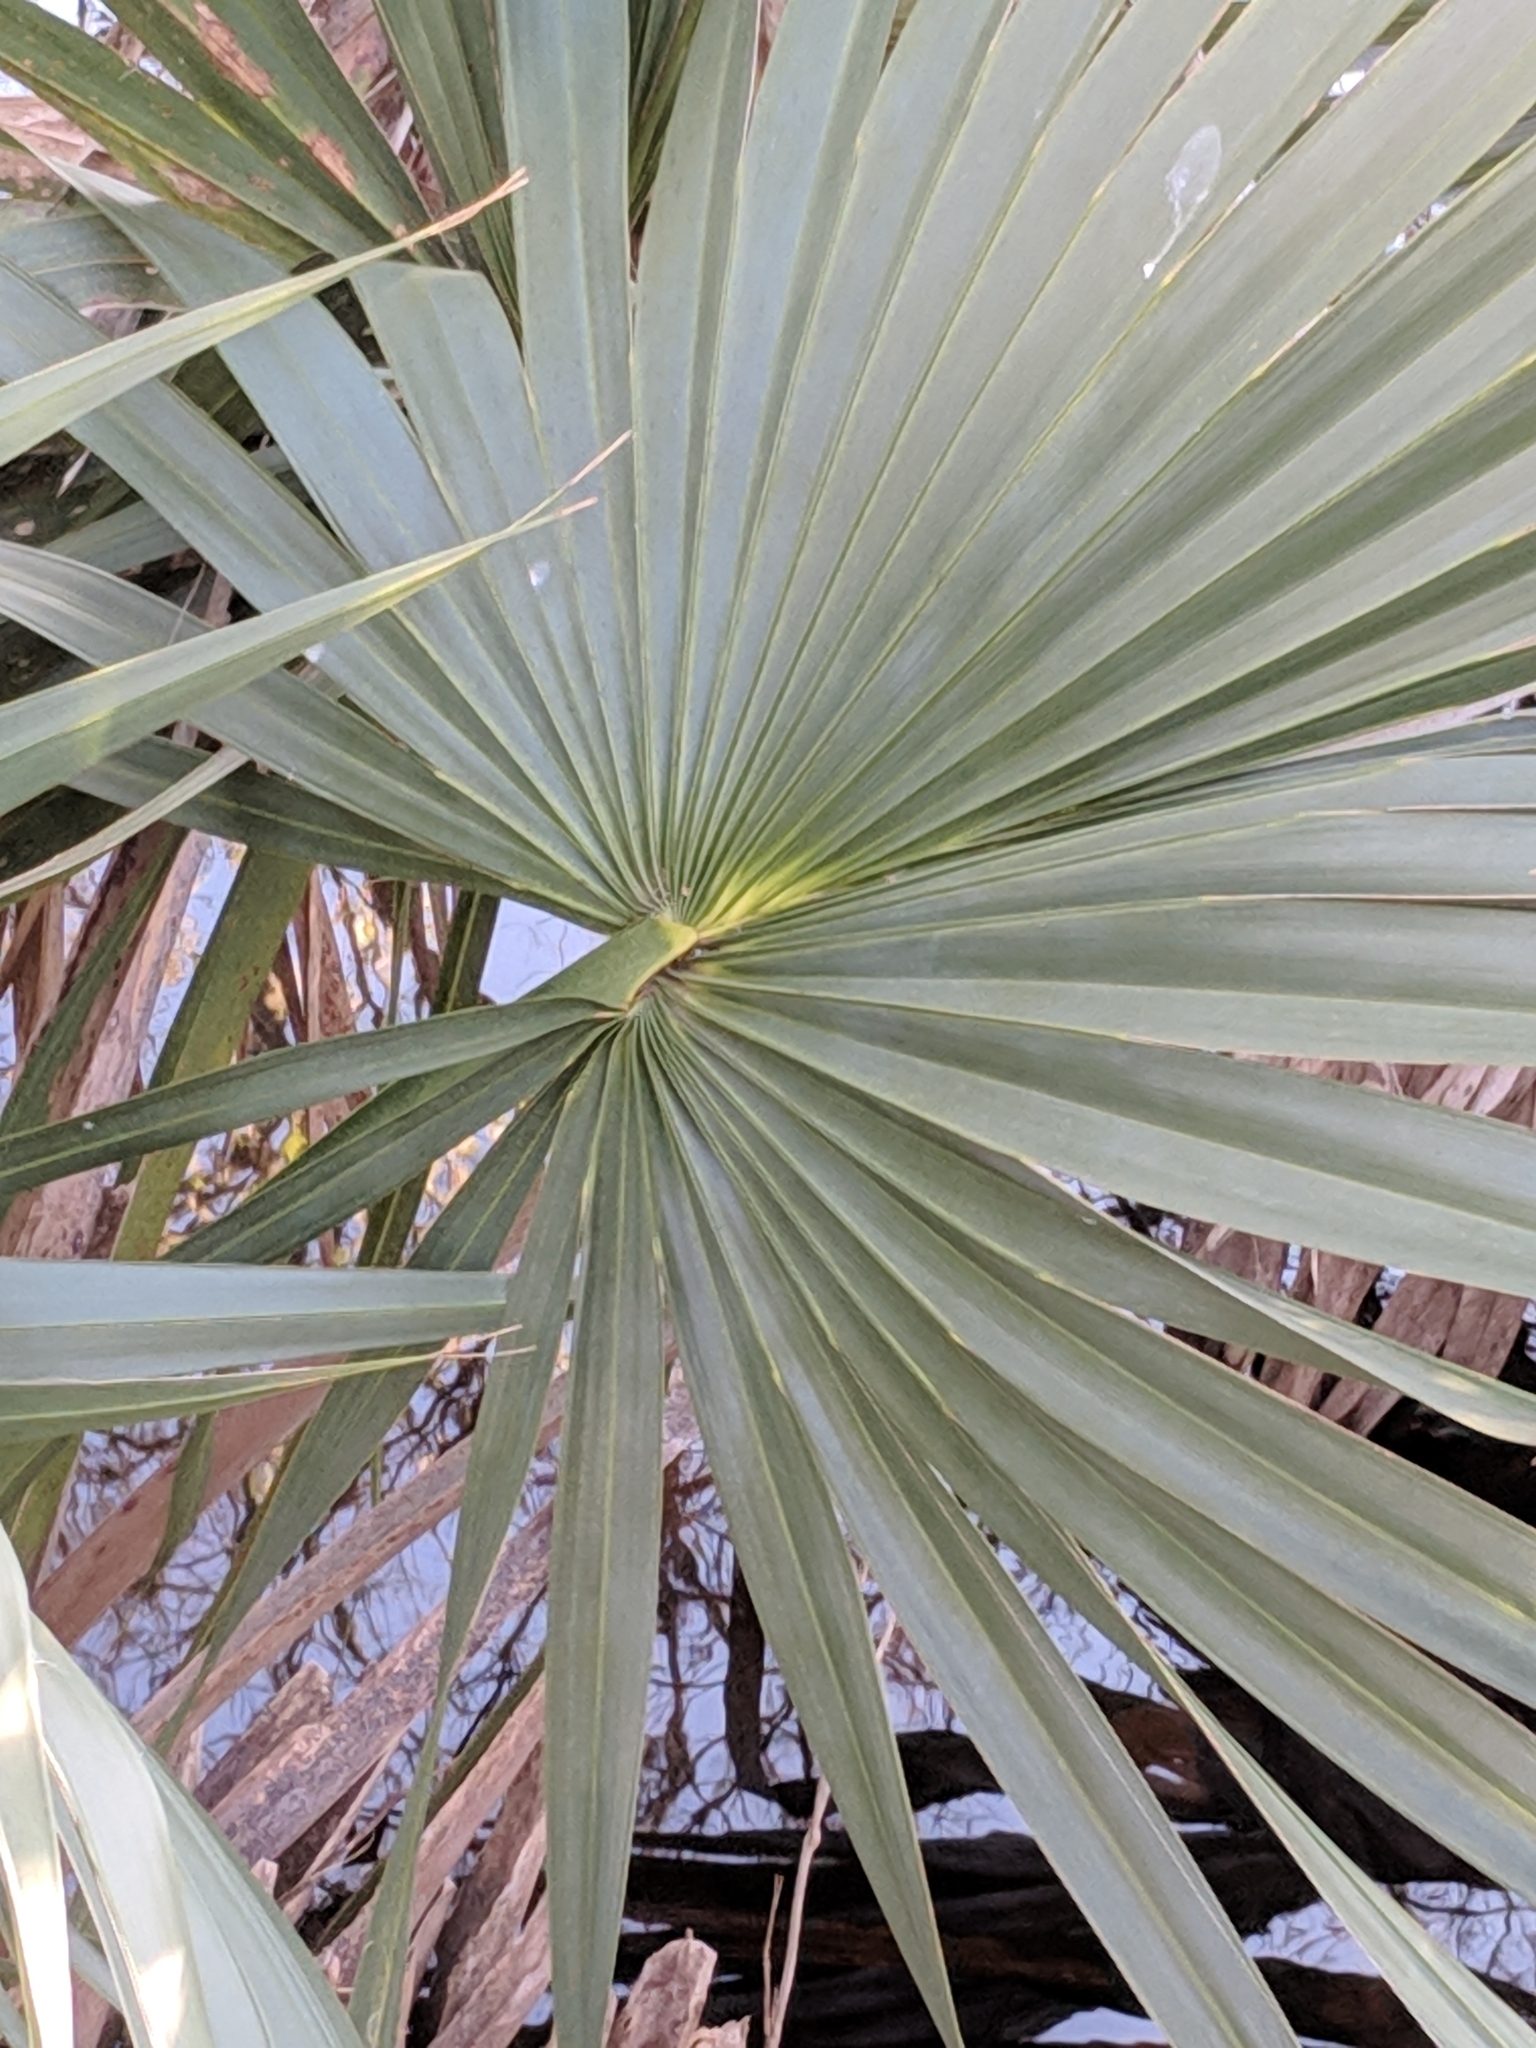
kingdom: Plantae
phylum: Tracheophyta
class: Liliopsida
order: Arecales
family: Arecaceae
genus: Sabal
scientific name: Sabal minor
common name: Dwarf palmetto
